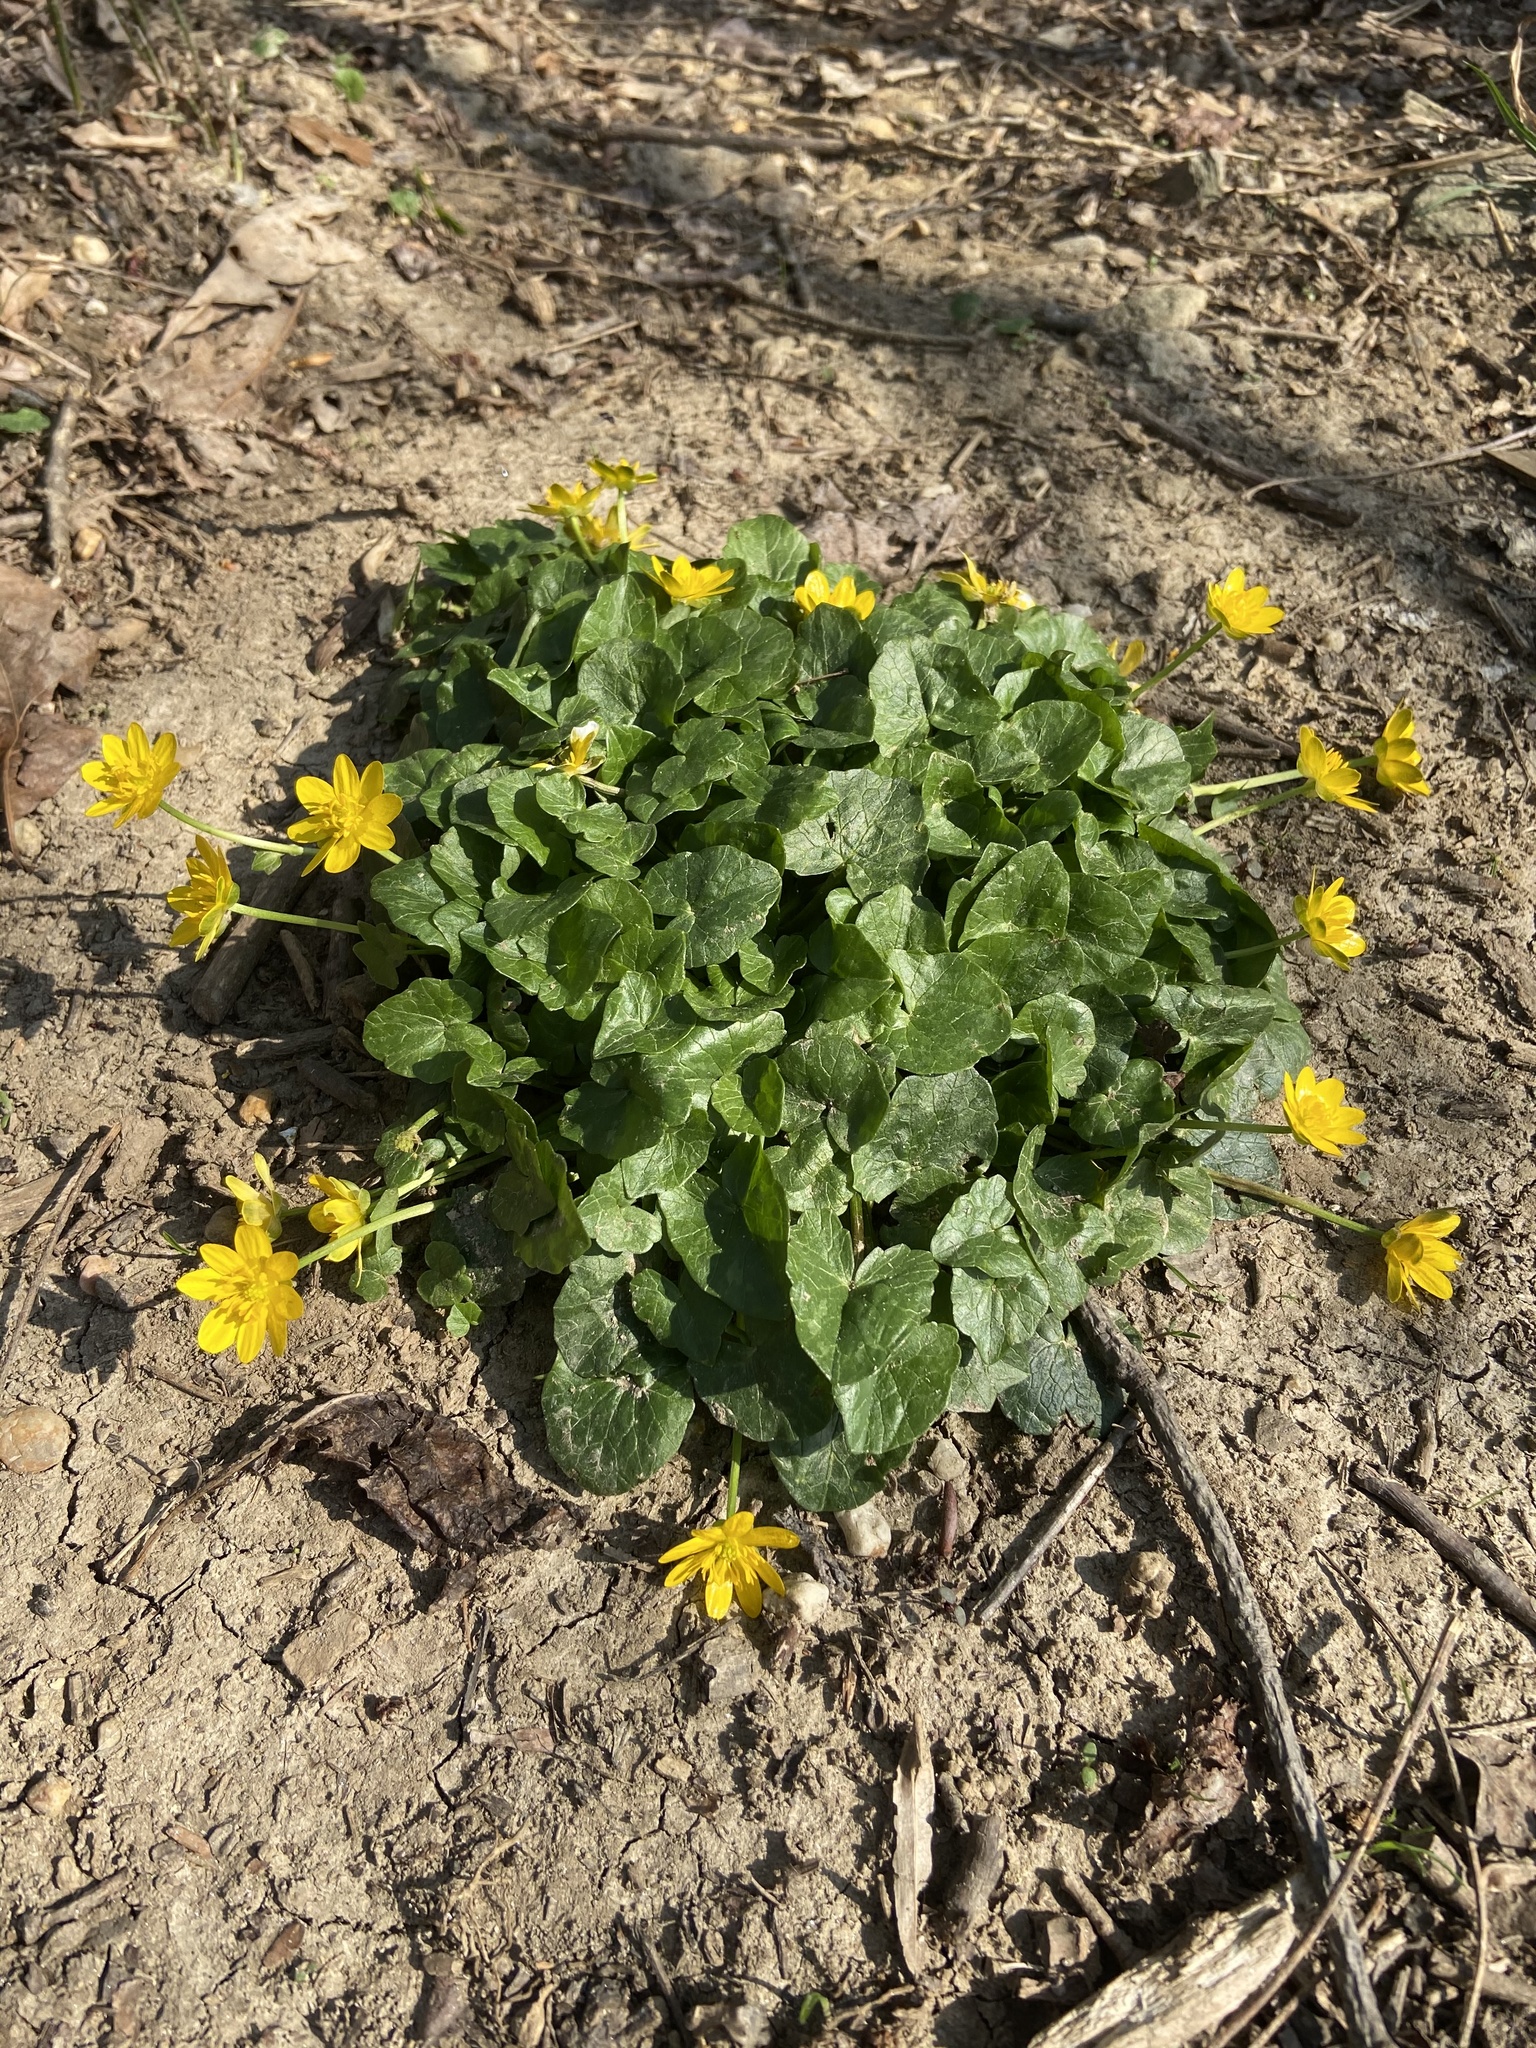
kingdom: Plantae
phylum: Tracheophyta
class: Magnoliopsida
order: Ranunculales
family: Ranunculaceae
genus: Ficaria
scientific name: Ficaria verna
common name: Lesser celandine
